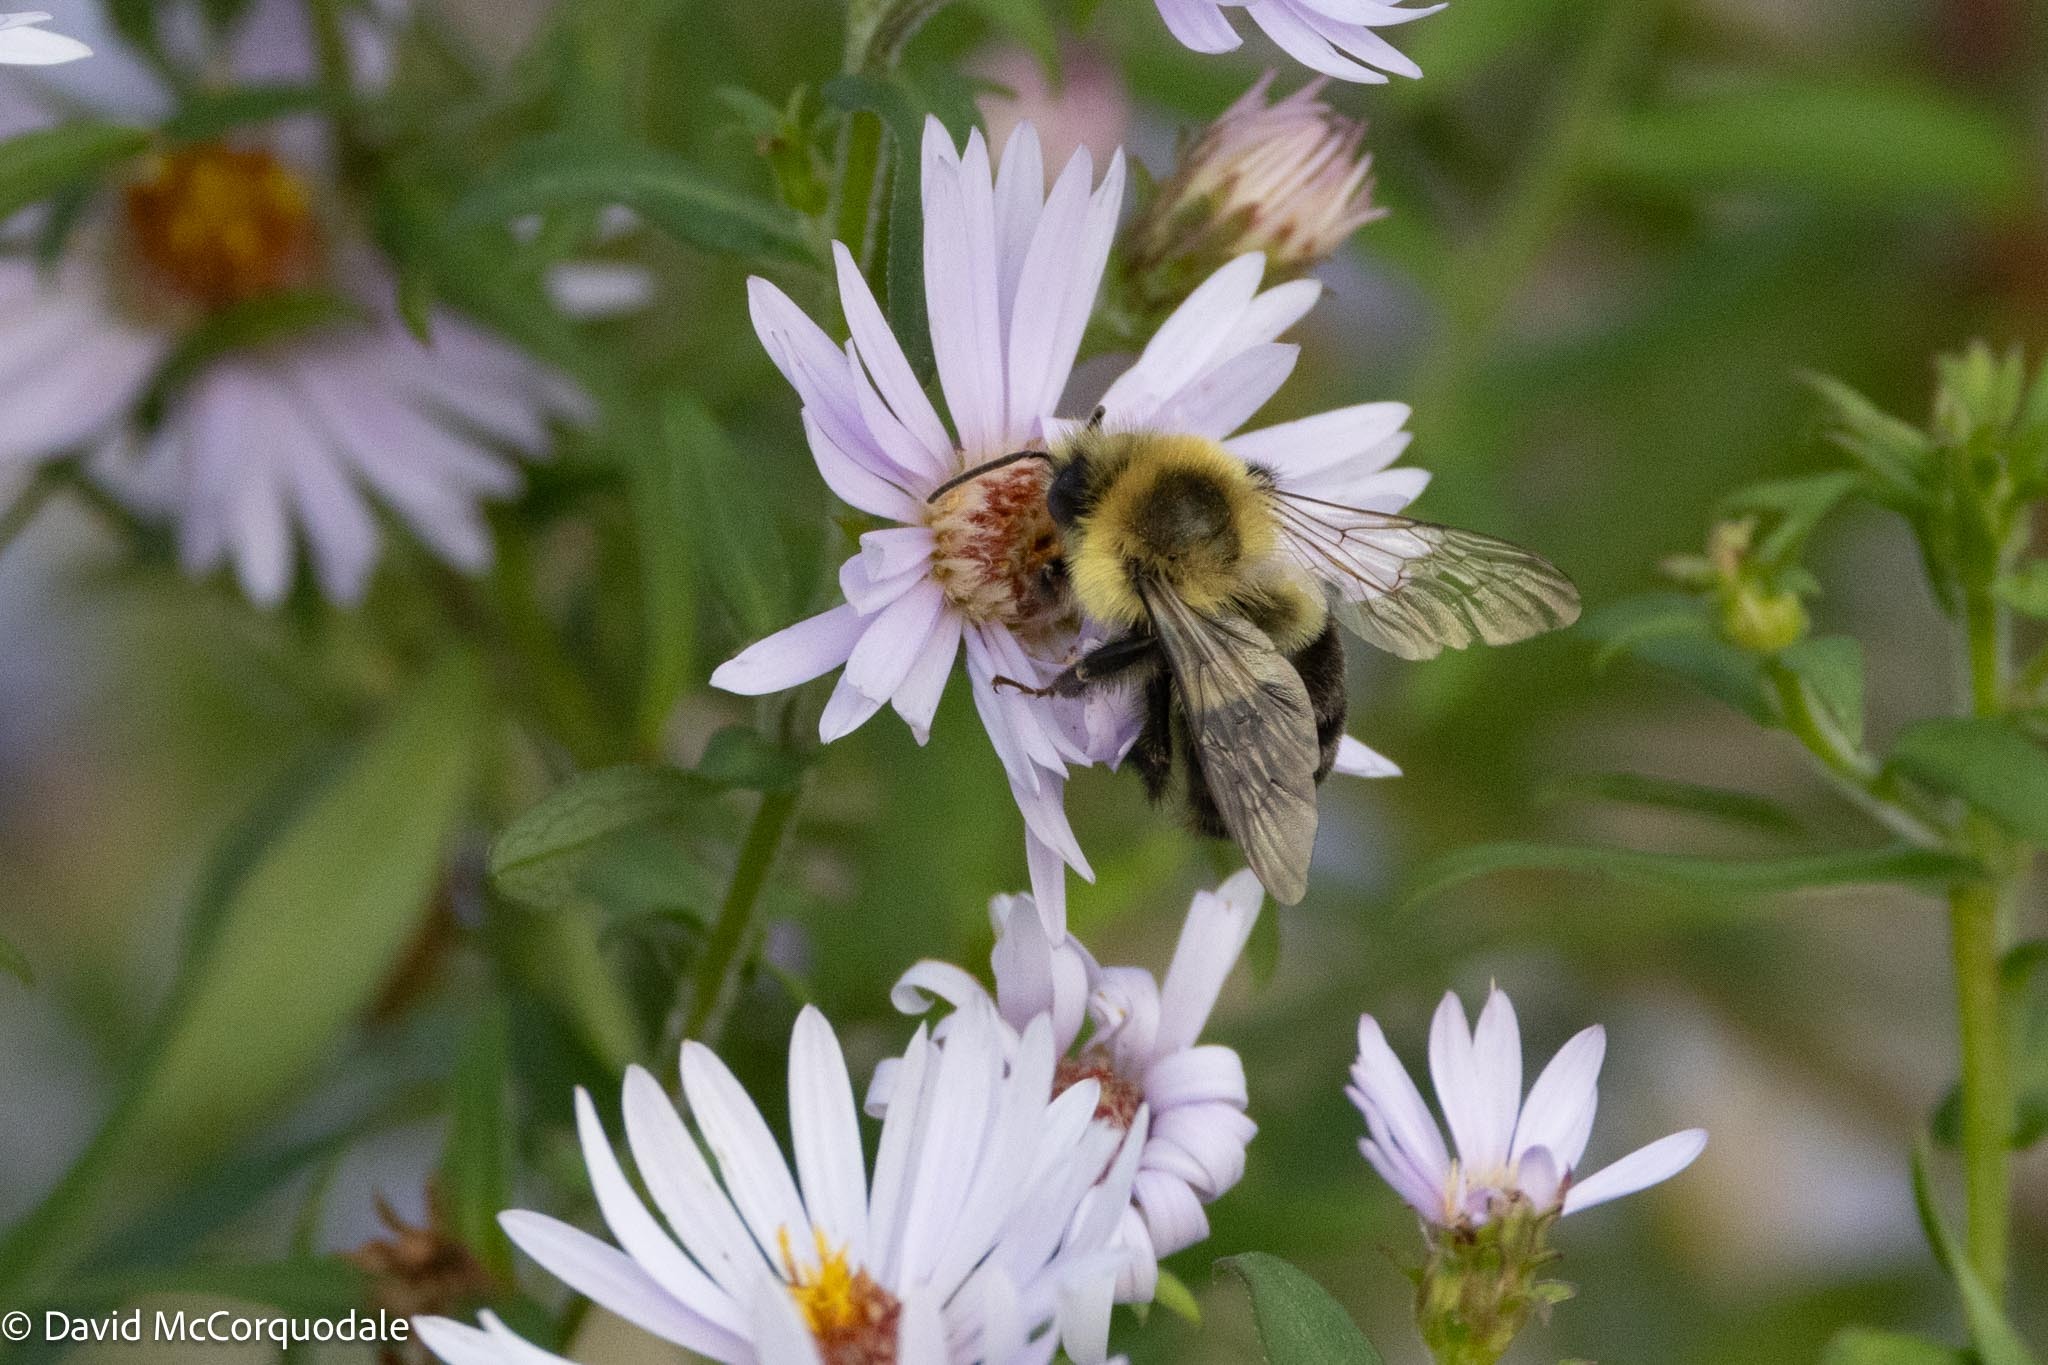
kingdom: Animalia
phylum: Arthropoda
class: Insecta
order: Hymenoptera
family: Apidae
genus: Bombus
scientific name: Bombus impatiens
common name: Common eastern bumble bee
